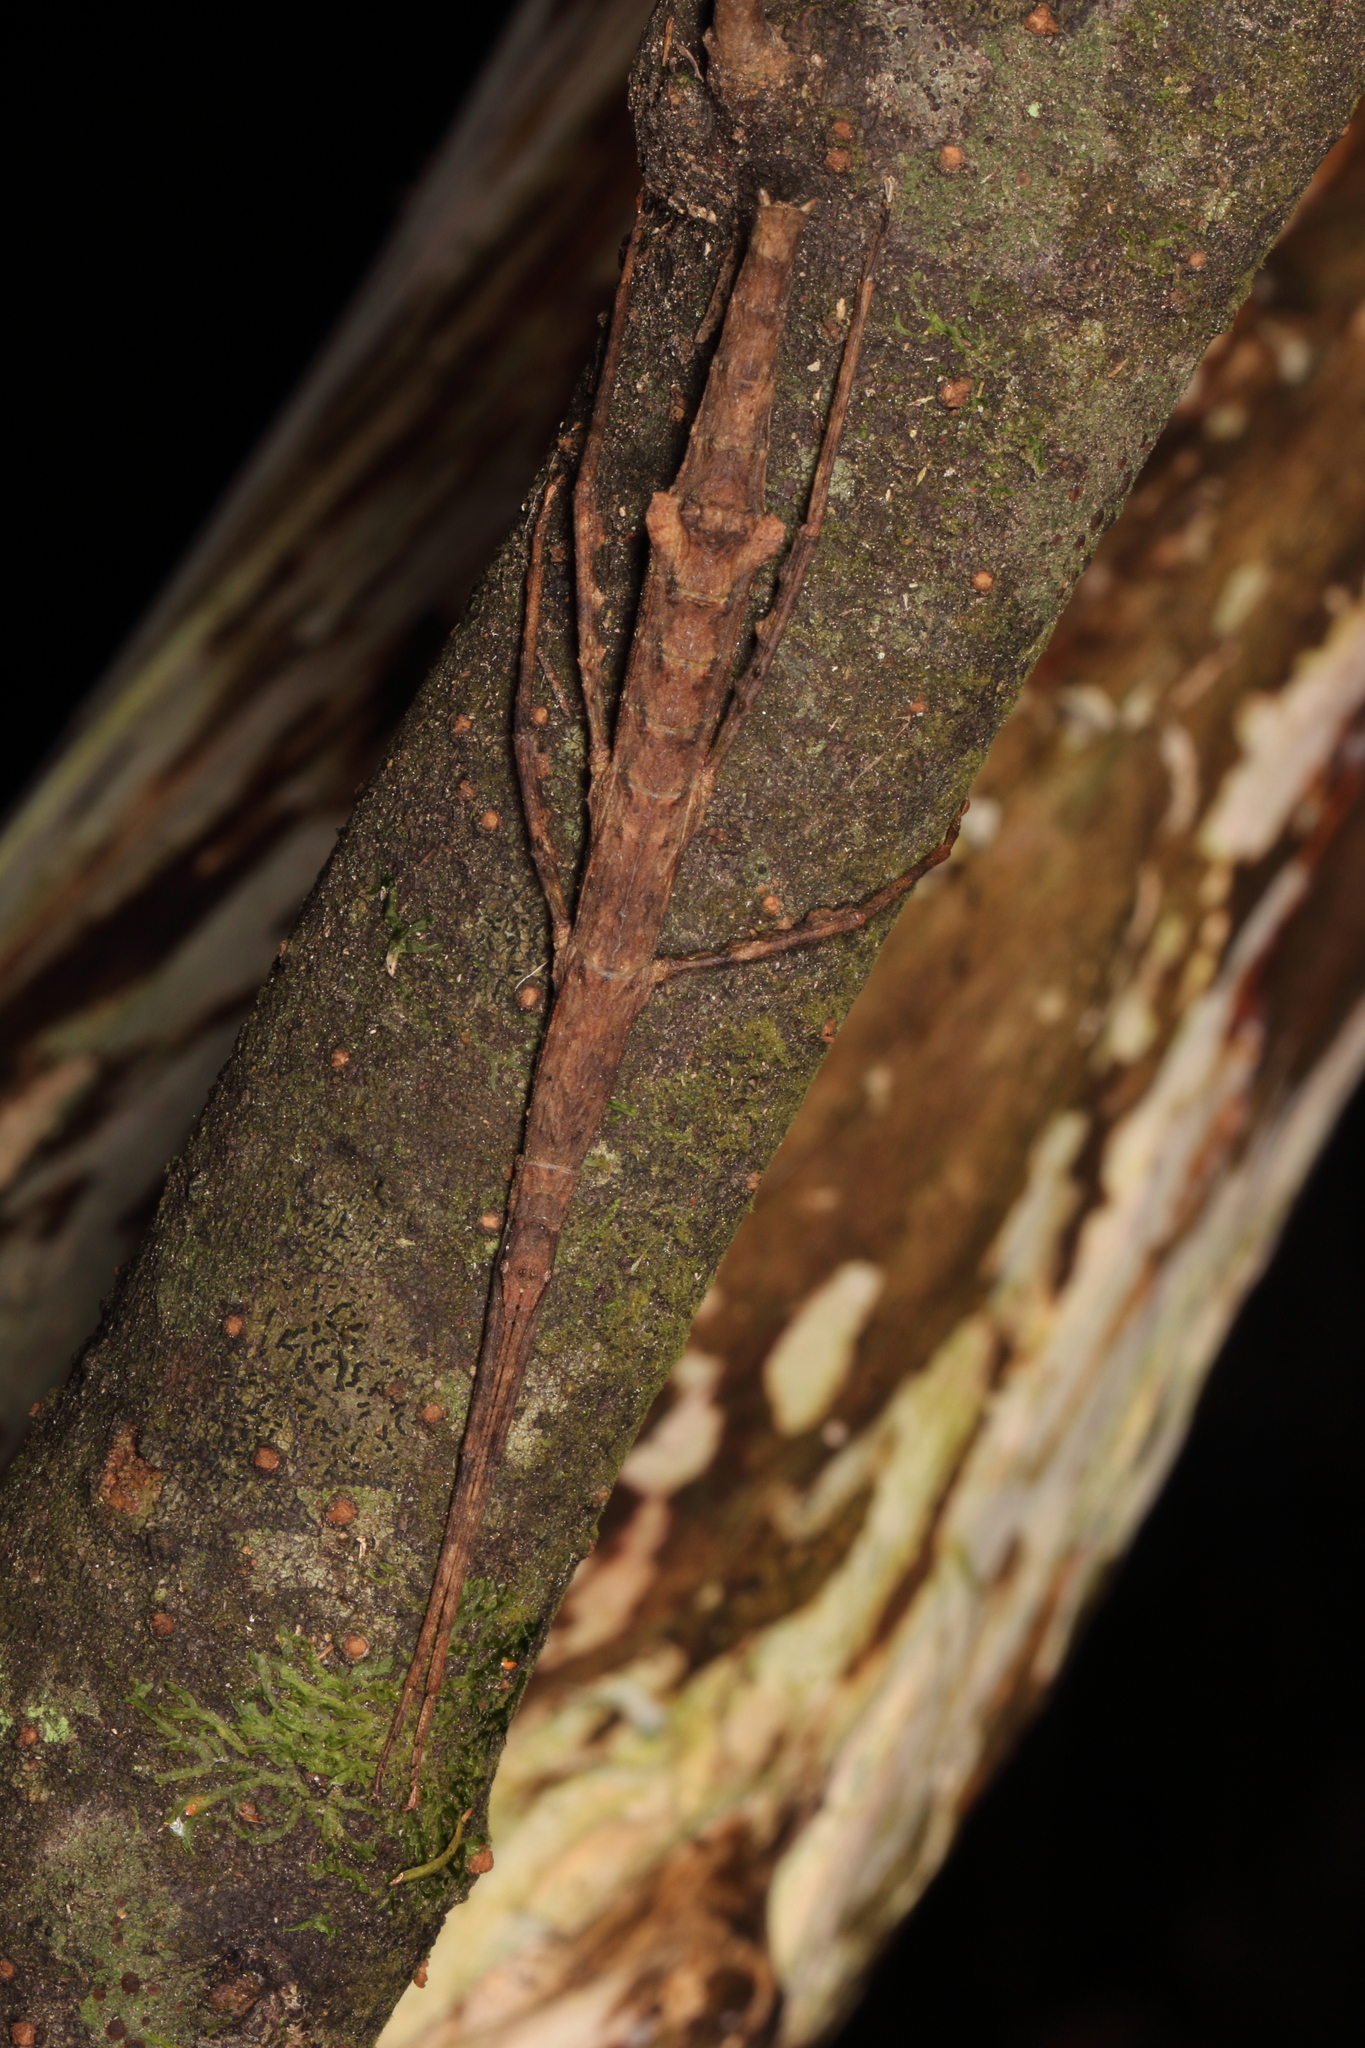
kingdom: Animalia
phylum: Arthropoda
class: Insecta
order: Phasmida
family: Phasmatidae
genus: Tectarchus
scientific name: Tectarchus salebrosus
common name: Lesser rough-skinned stick insect
